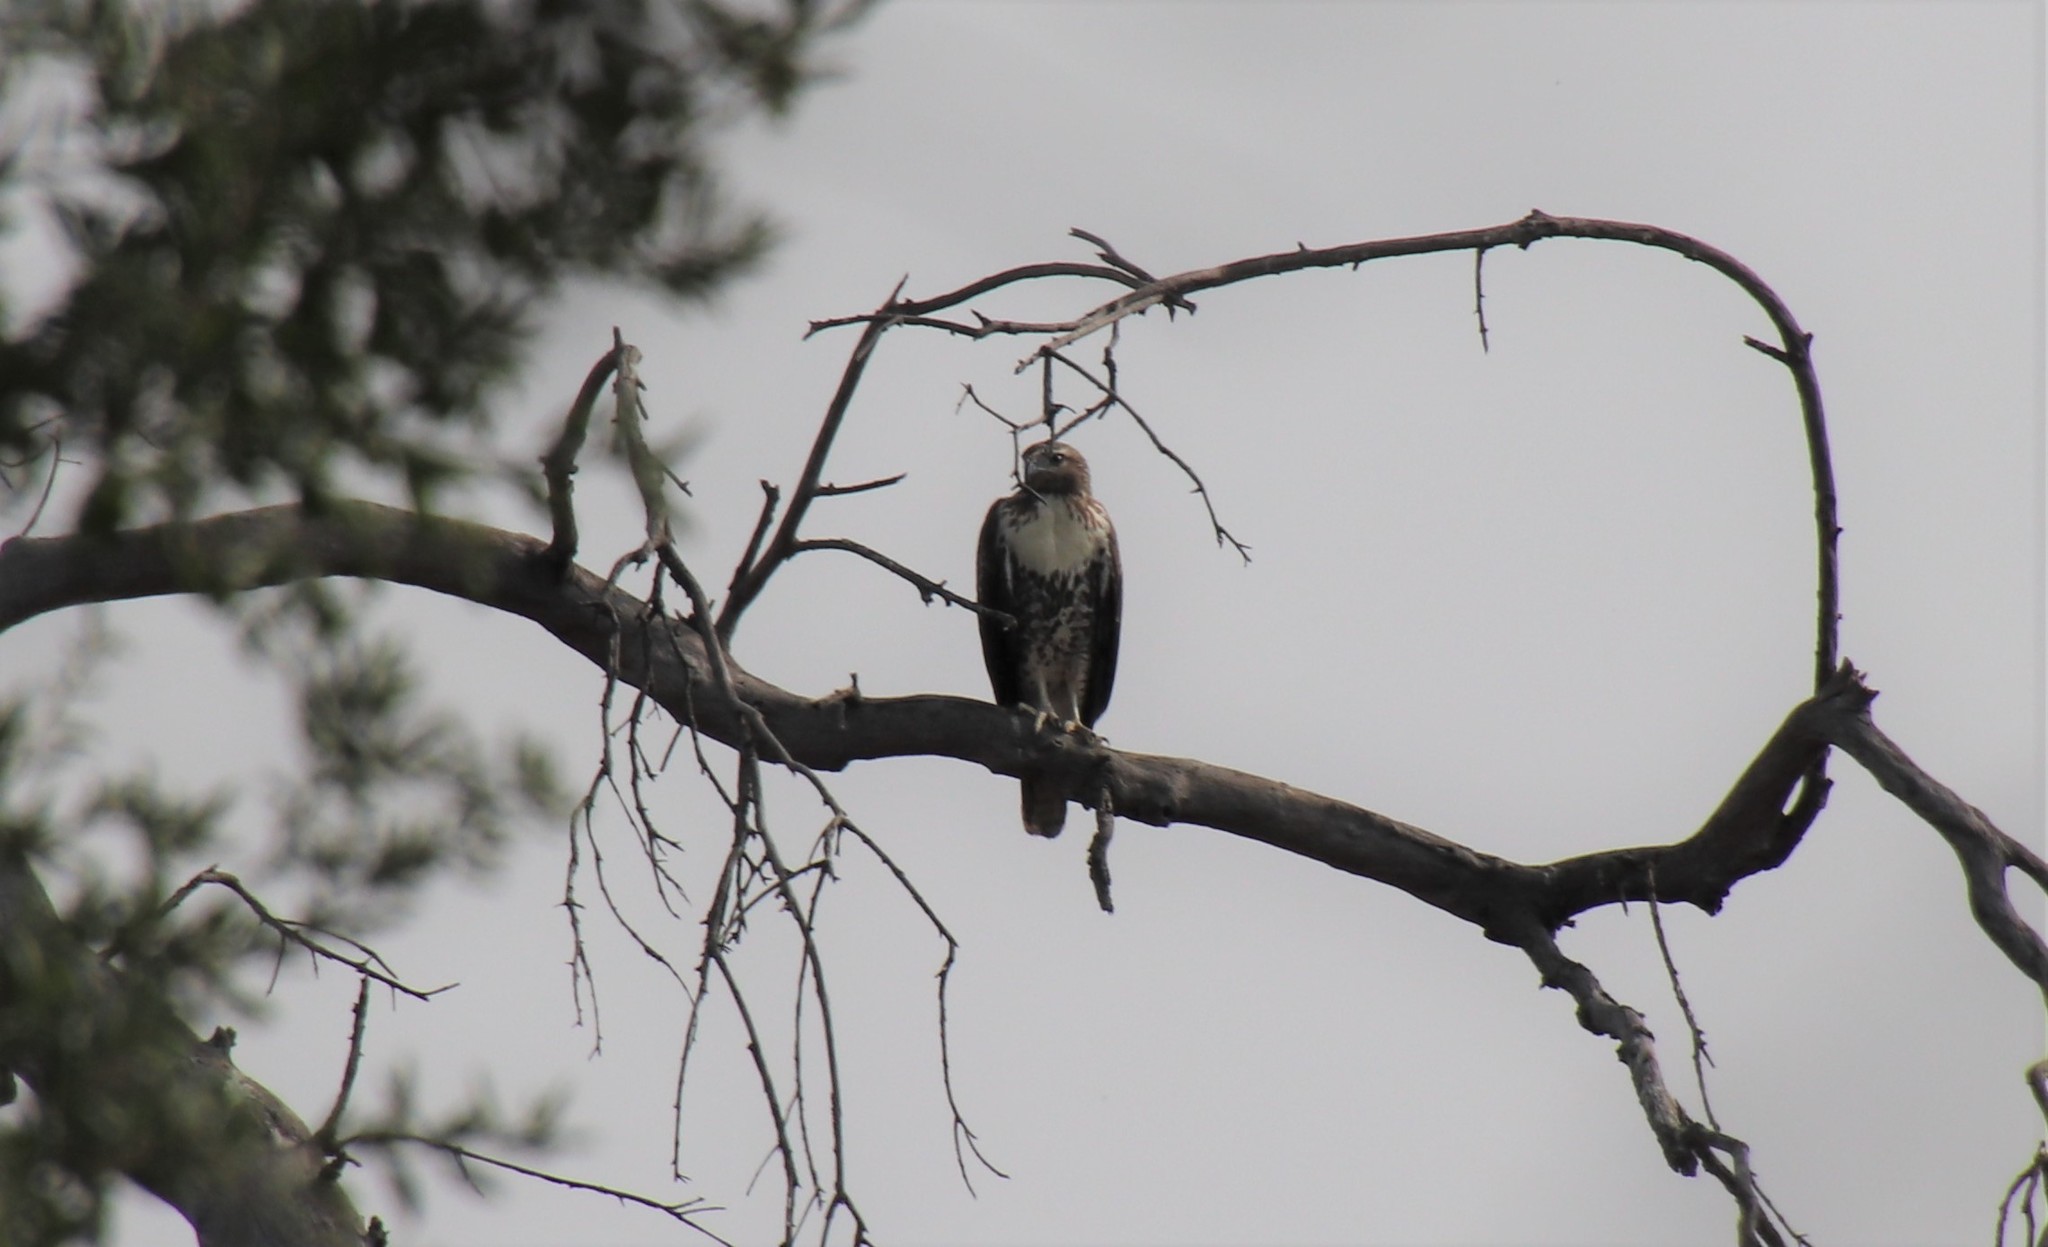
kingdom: Animalia
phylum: Chordata
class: Aves
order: Accipitriformes
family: Accipitridae
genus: Buteo
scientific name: Buteo jamaicensis
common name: Red-tailed hawk
